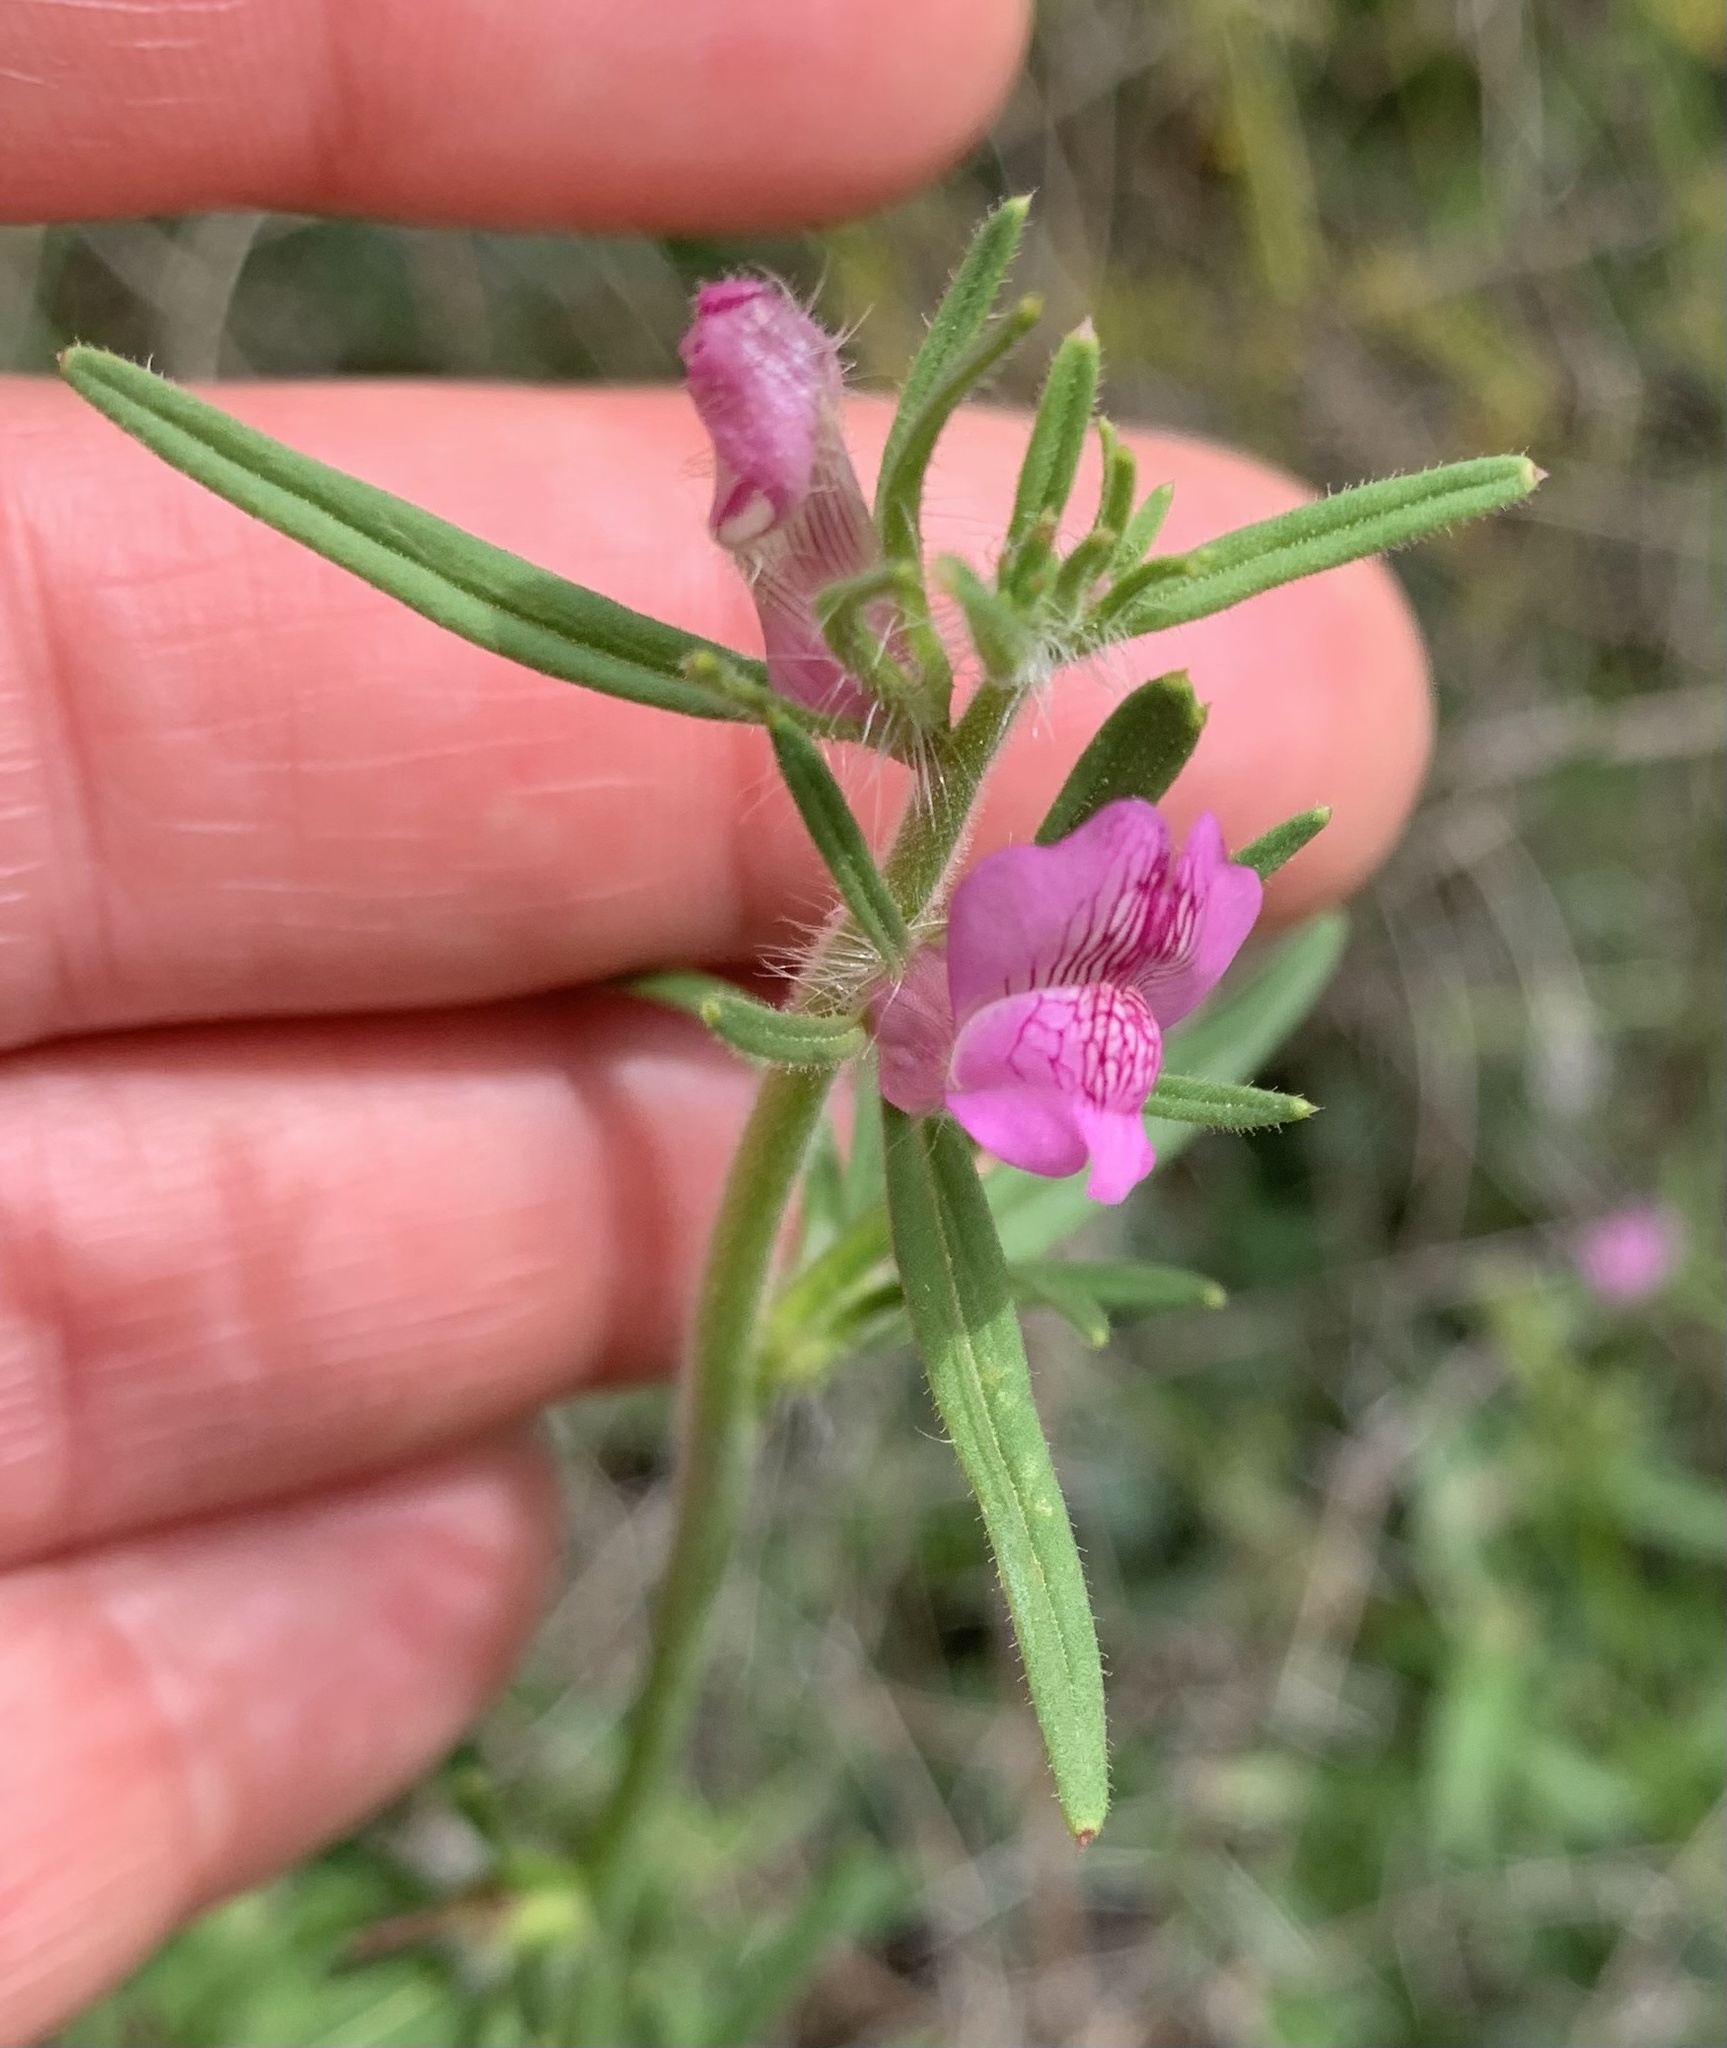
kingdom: Plantae
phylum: Tracheophyta
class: Magnoliopsida
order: Lamiales
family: Plantaginaceae
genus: Misopates
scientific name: Misopates orontium
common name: Weasel's-snout
